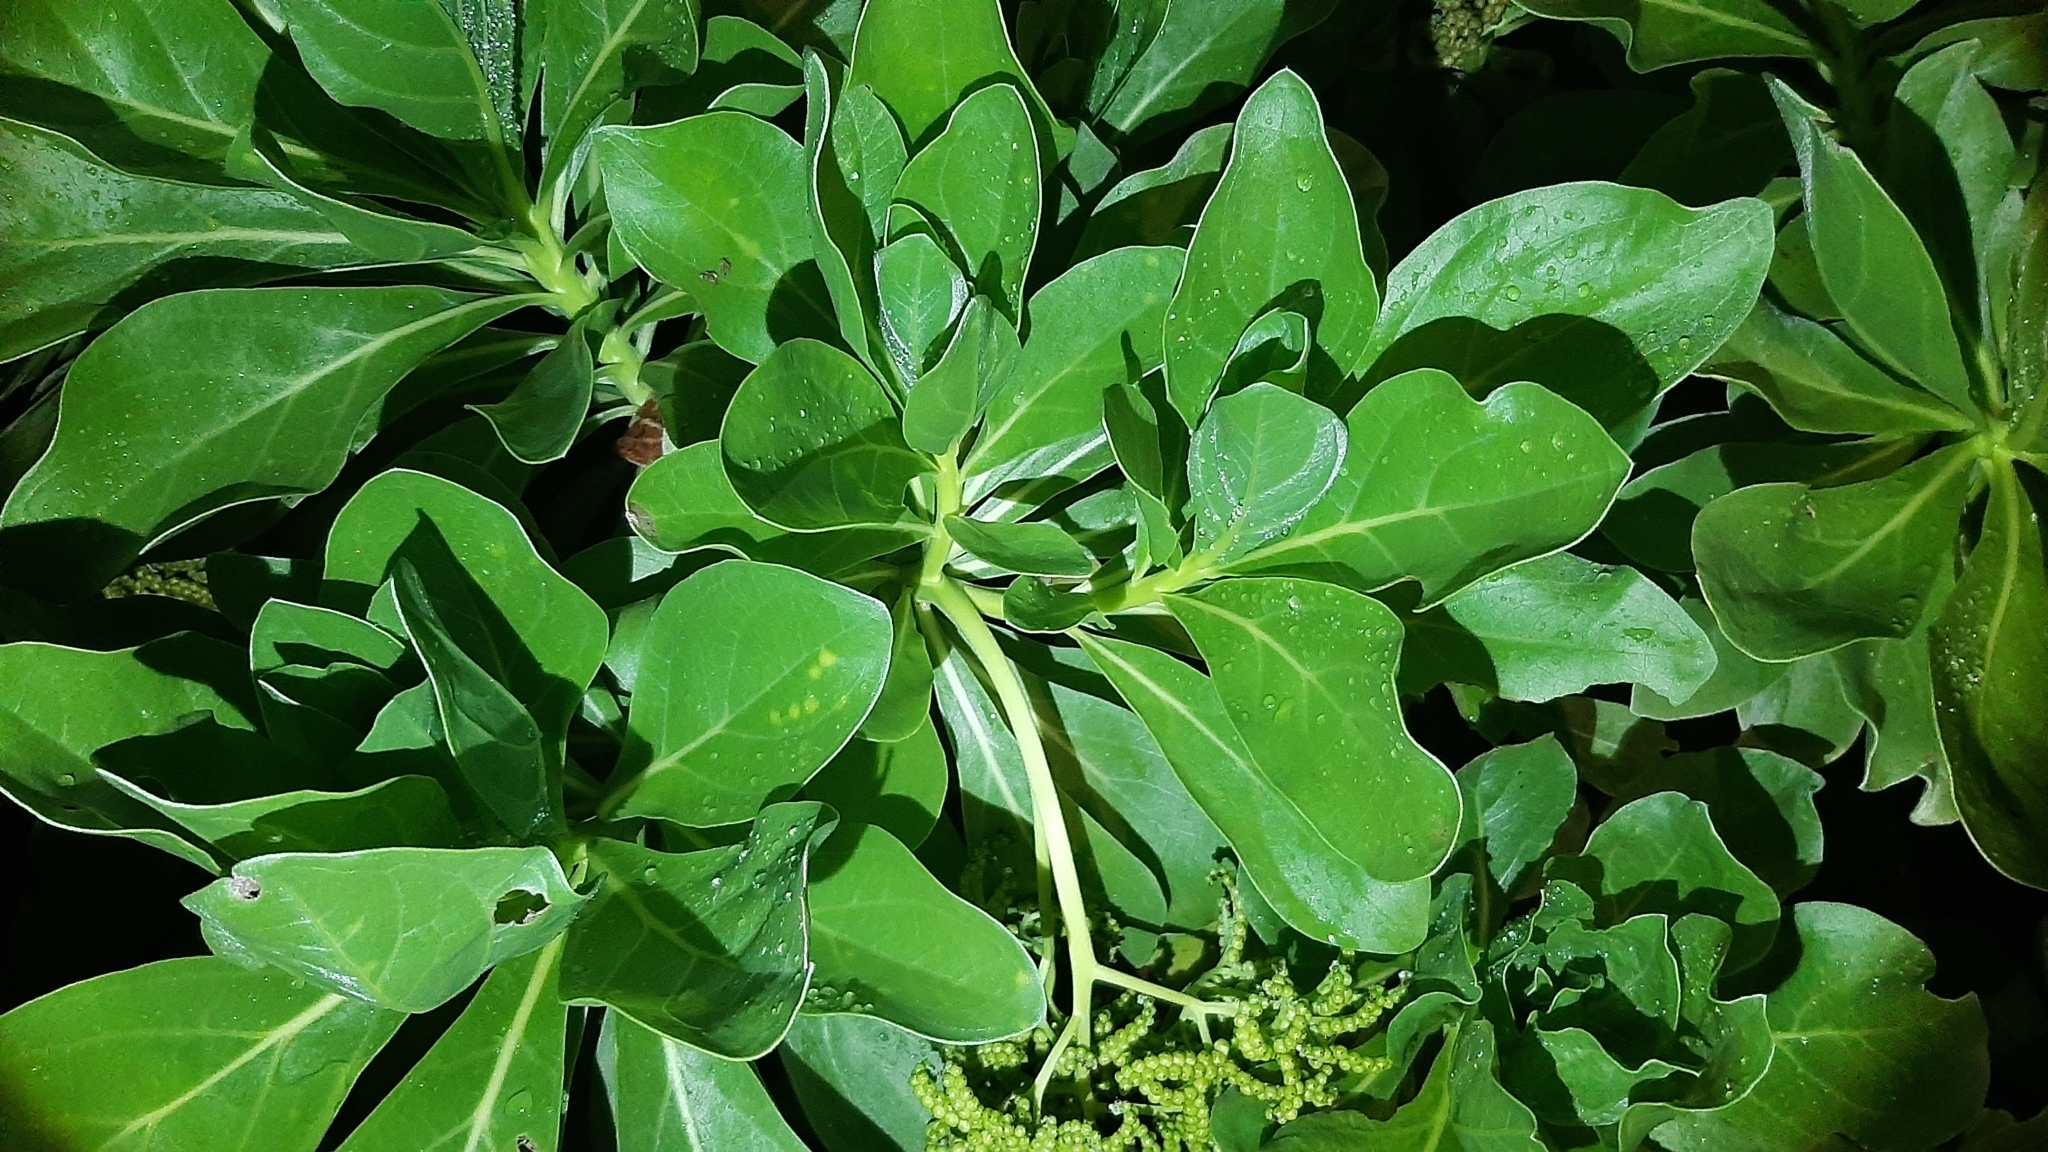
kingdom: Plantae
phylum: Tracheophyta
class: Magnoliopsida
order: Boraginales
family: Heliotropiaceae
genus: Heliotropium
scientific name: Heliotropium velutinum
